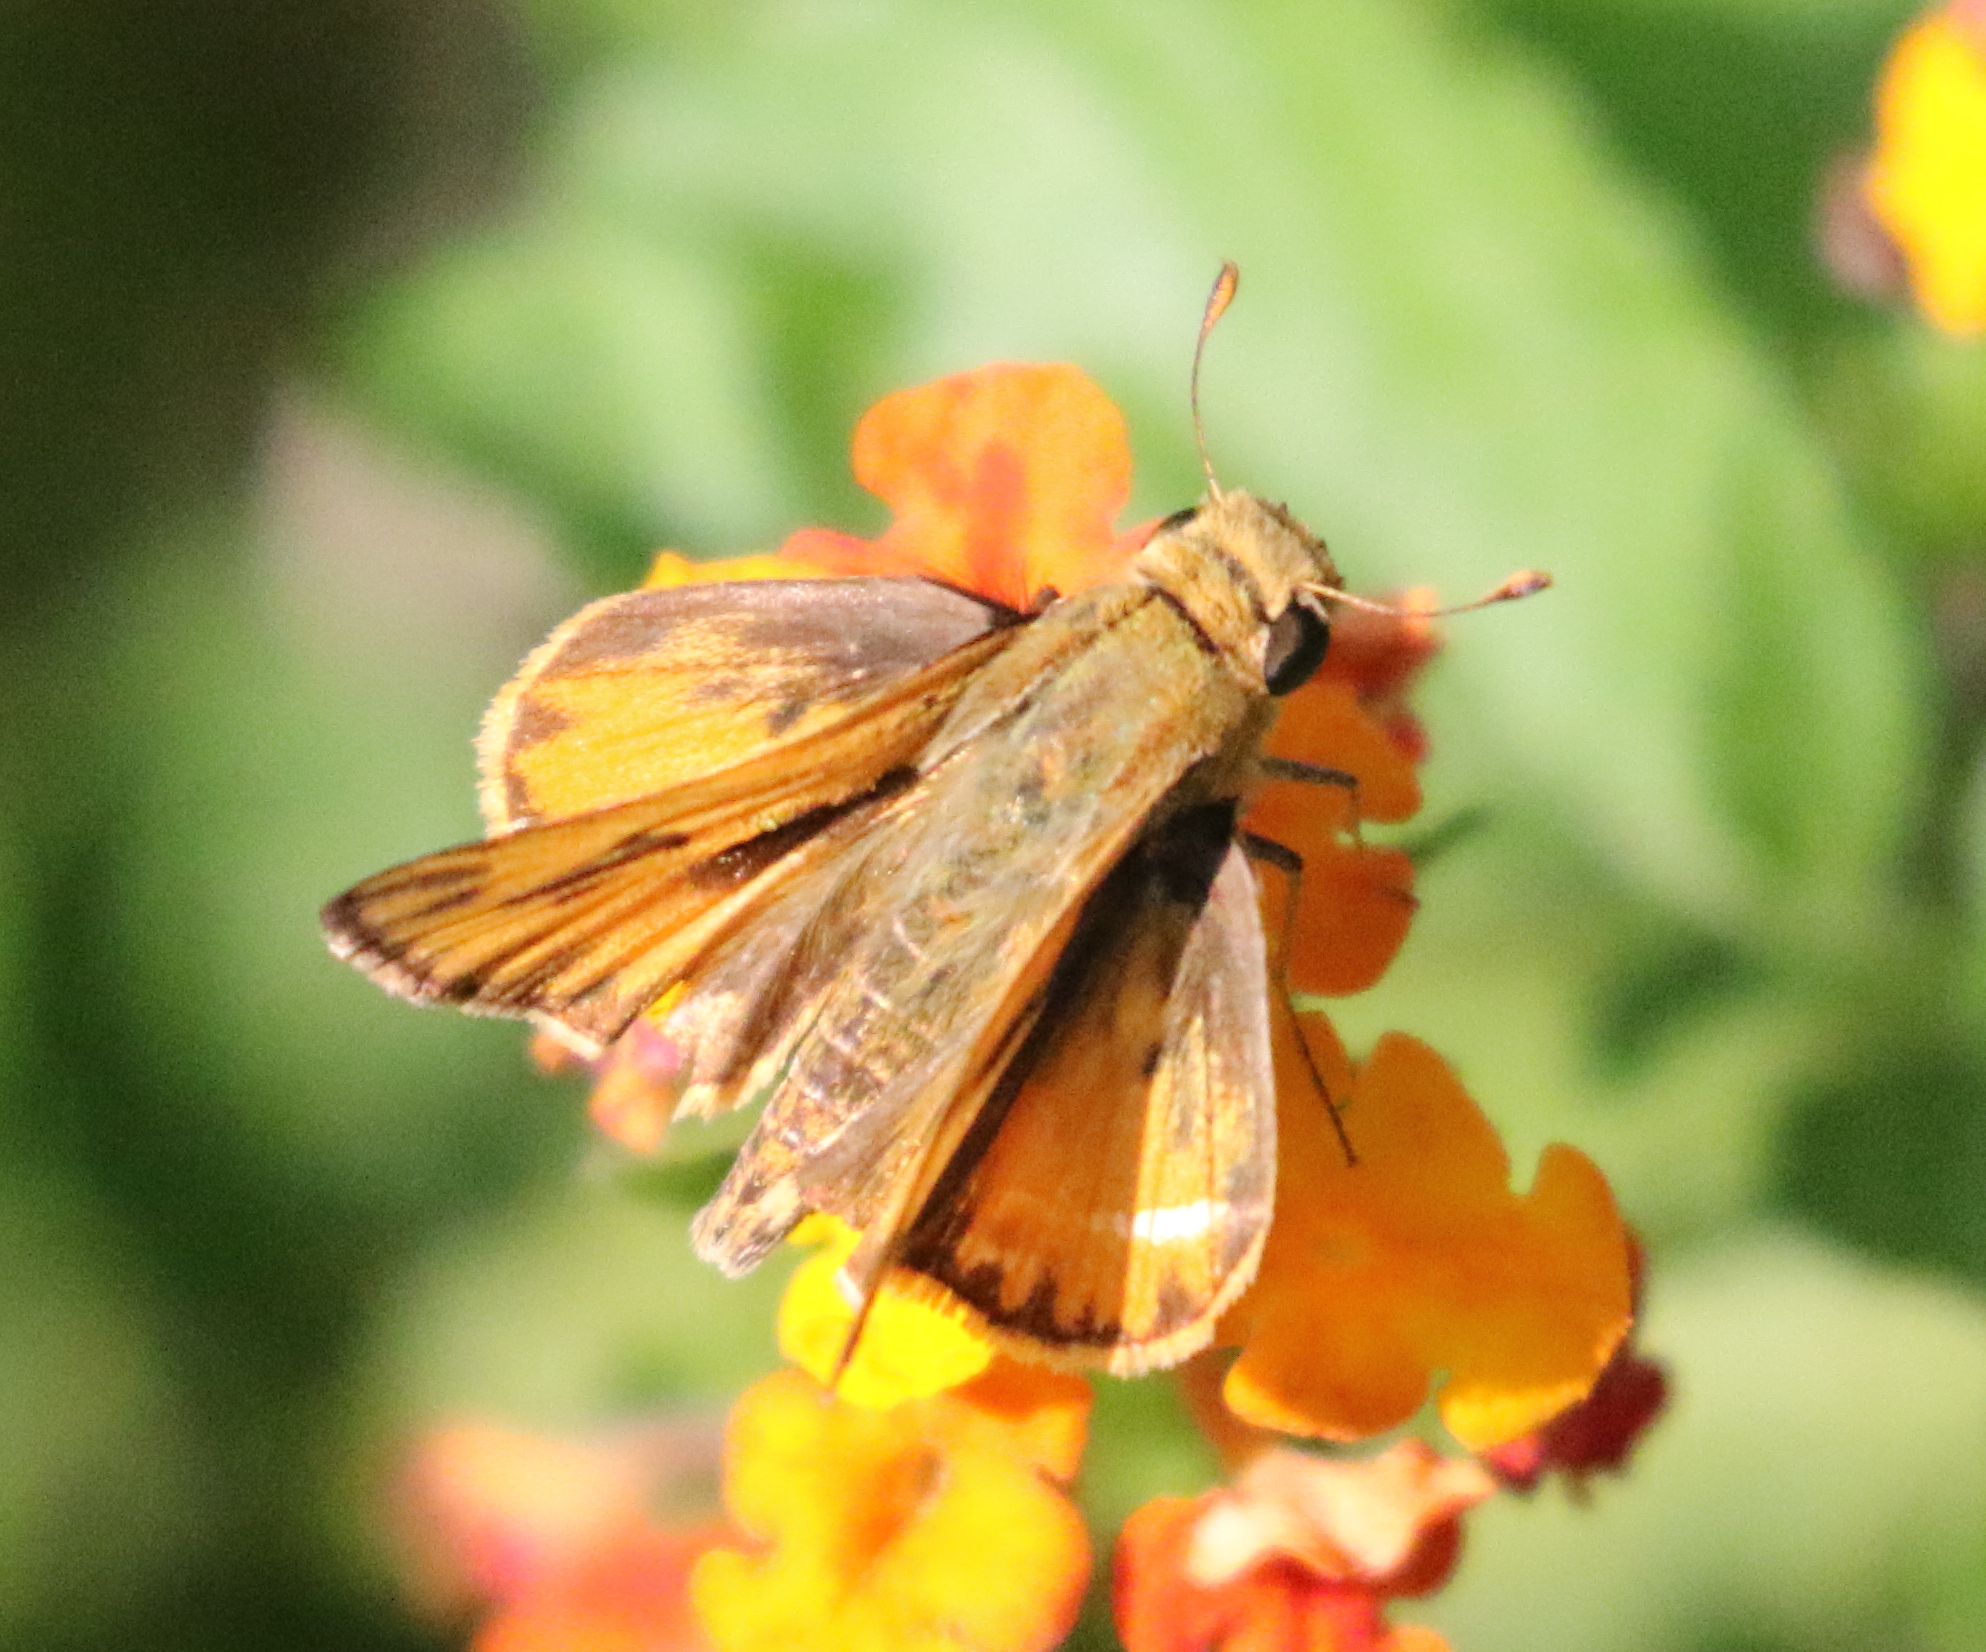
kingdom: Animalia
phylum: Arthropoda
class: Insecta
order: Lepidoptera
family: Hesperiidae
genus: Hylephila
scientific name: Hylephila phyleus
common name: Fiery skipper
